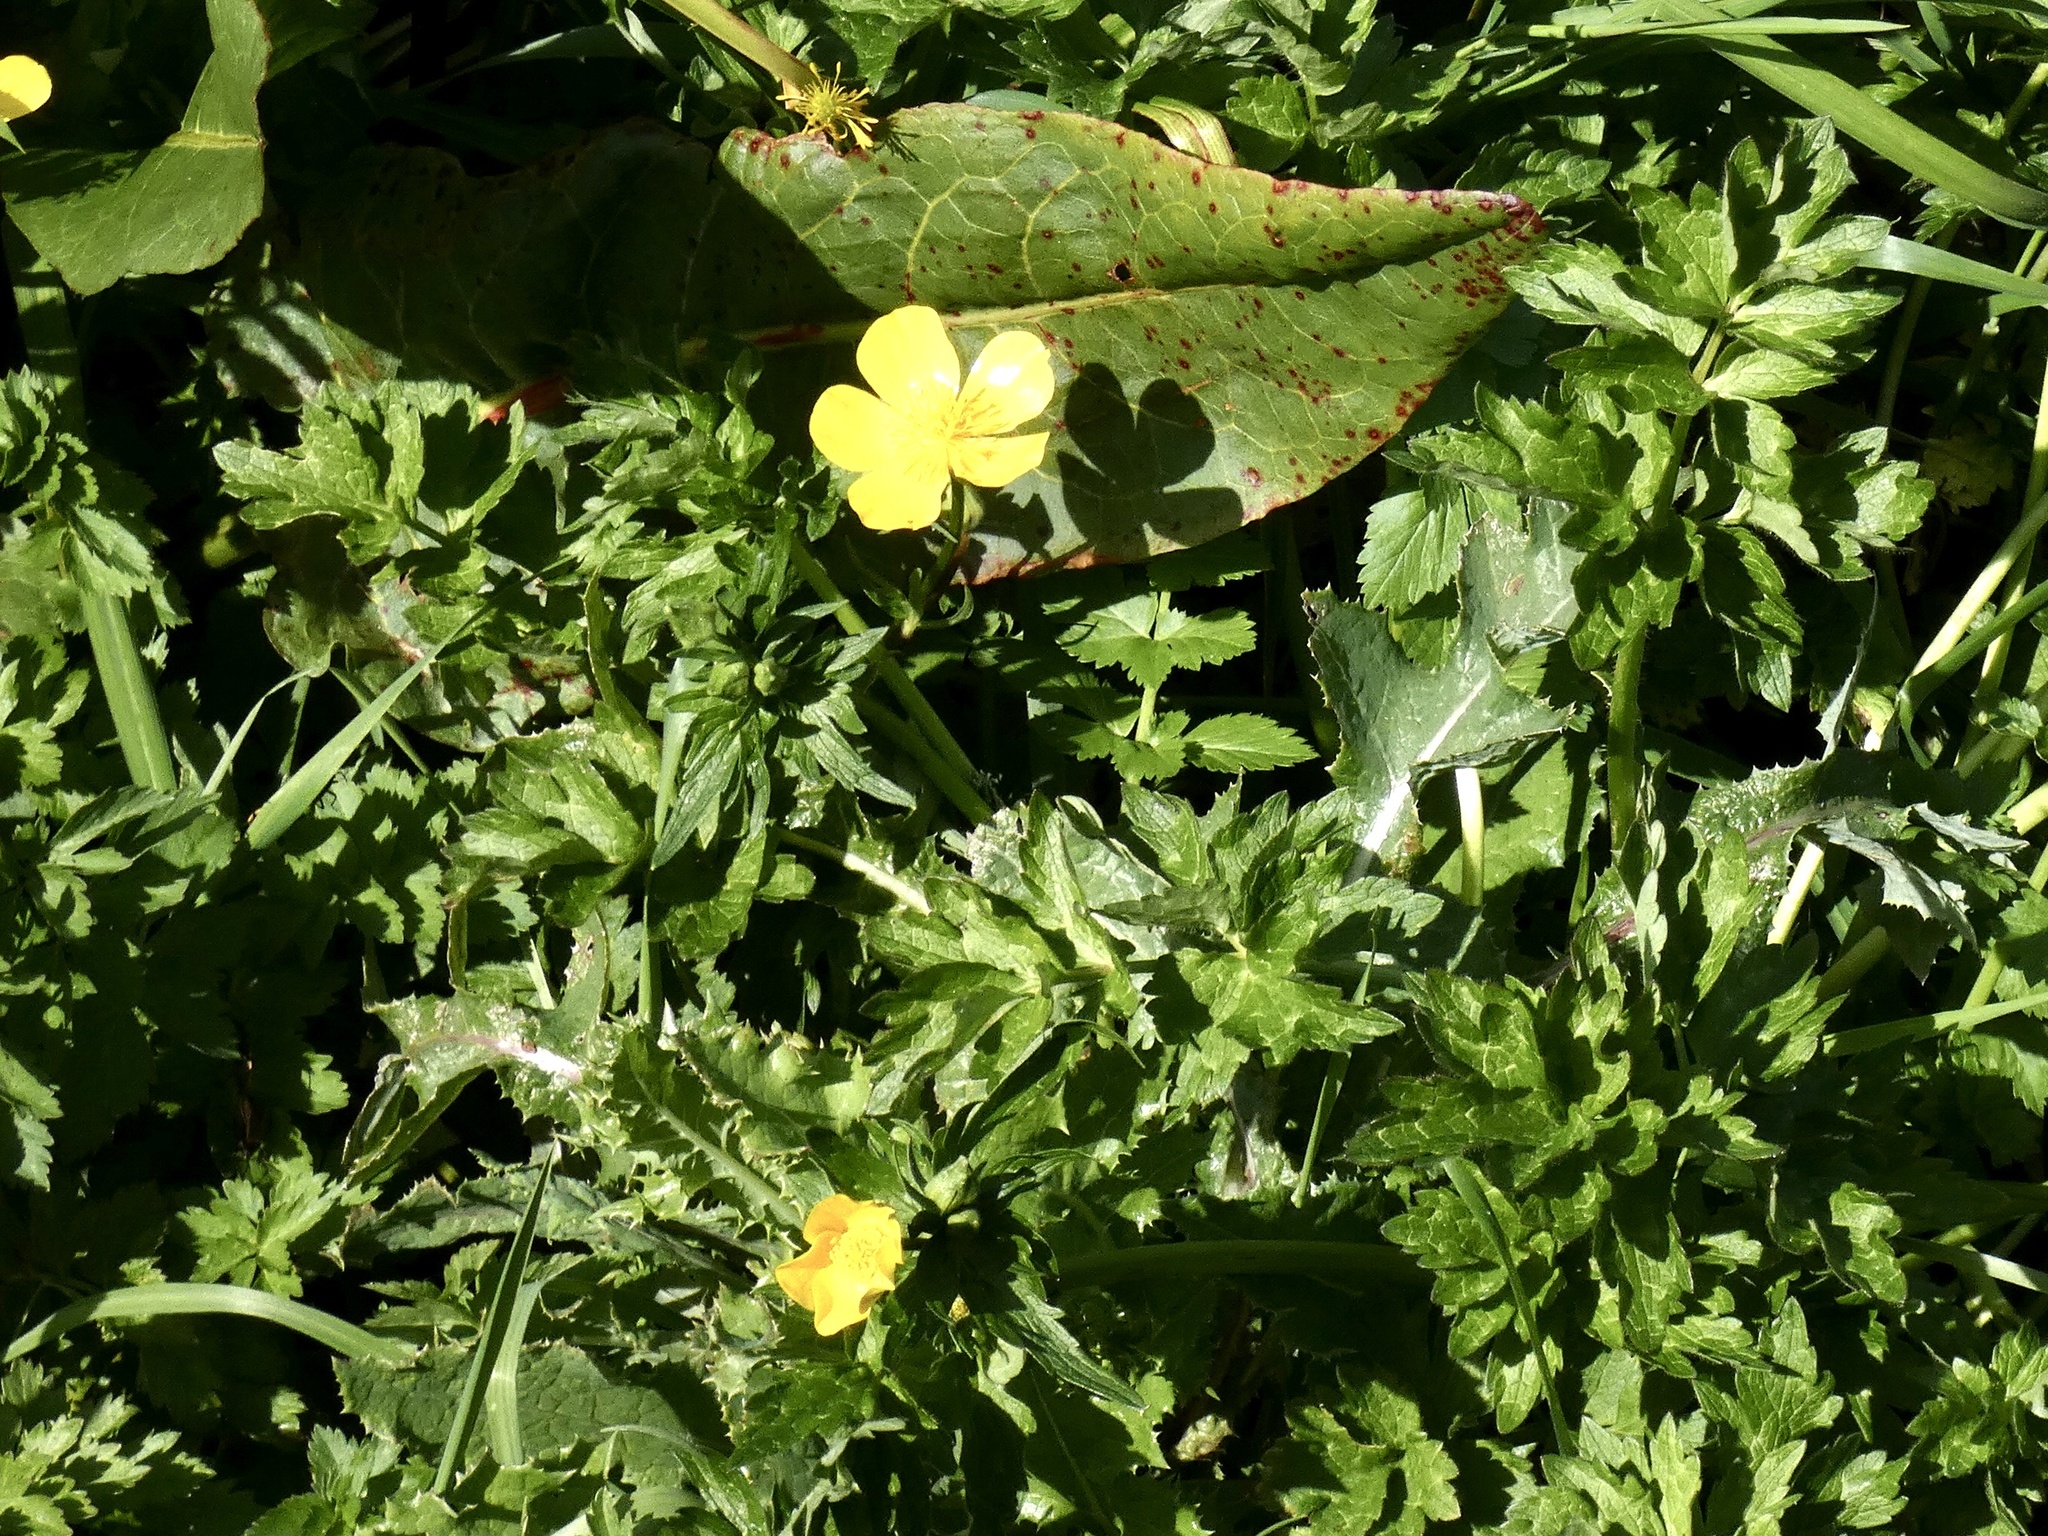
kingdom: Plantae
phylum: Tracheophyta
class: Magnoliopsida
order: Ranunculales
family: Ranunculaceae
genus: Ranunculus
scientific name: Ranunculus orthorhynchus
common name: Straight-beak buttercup
